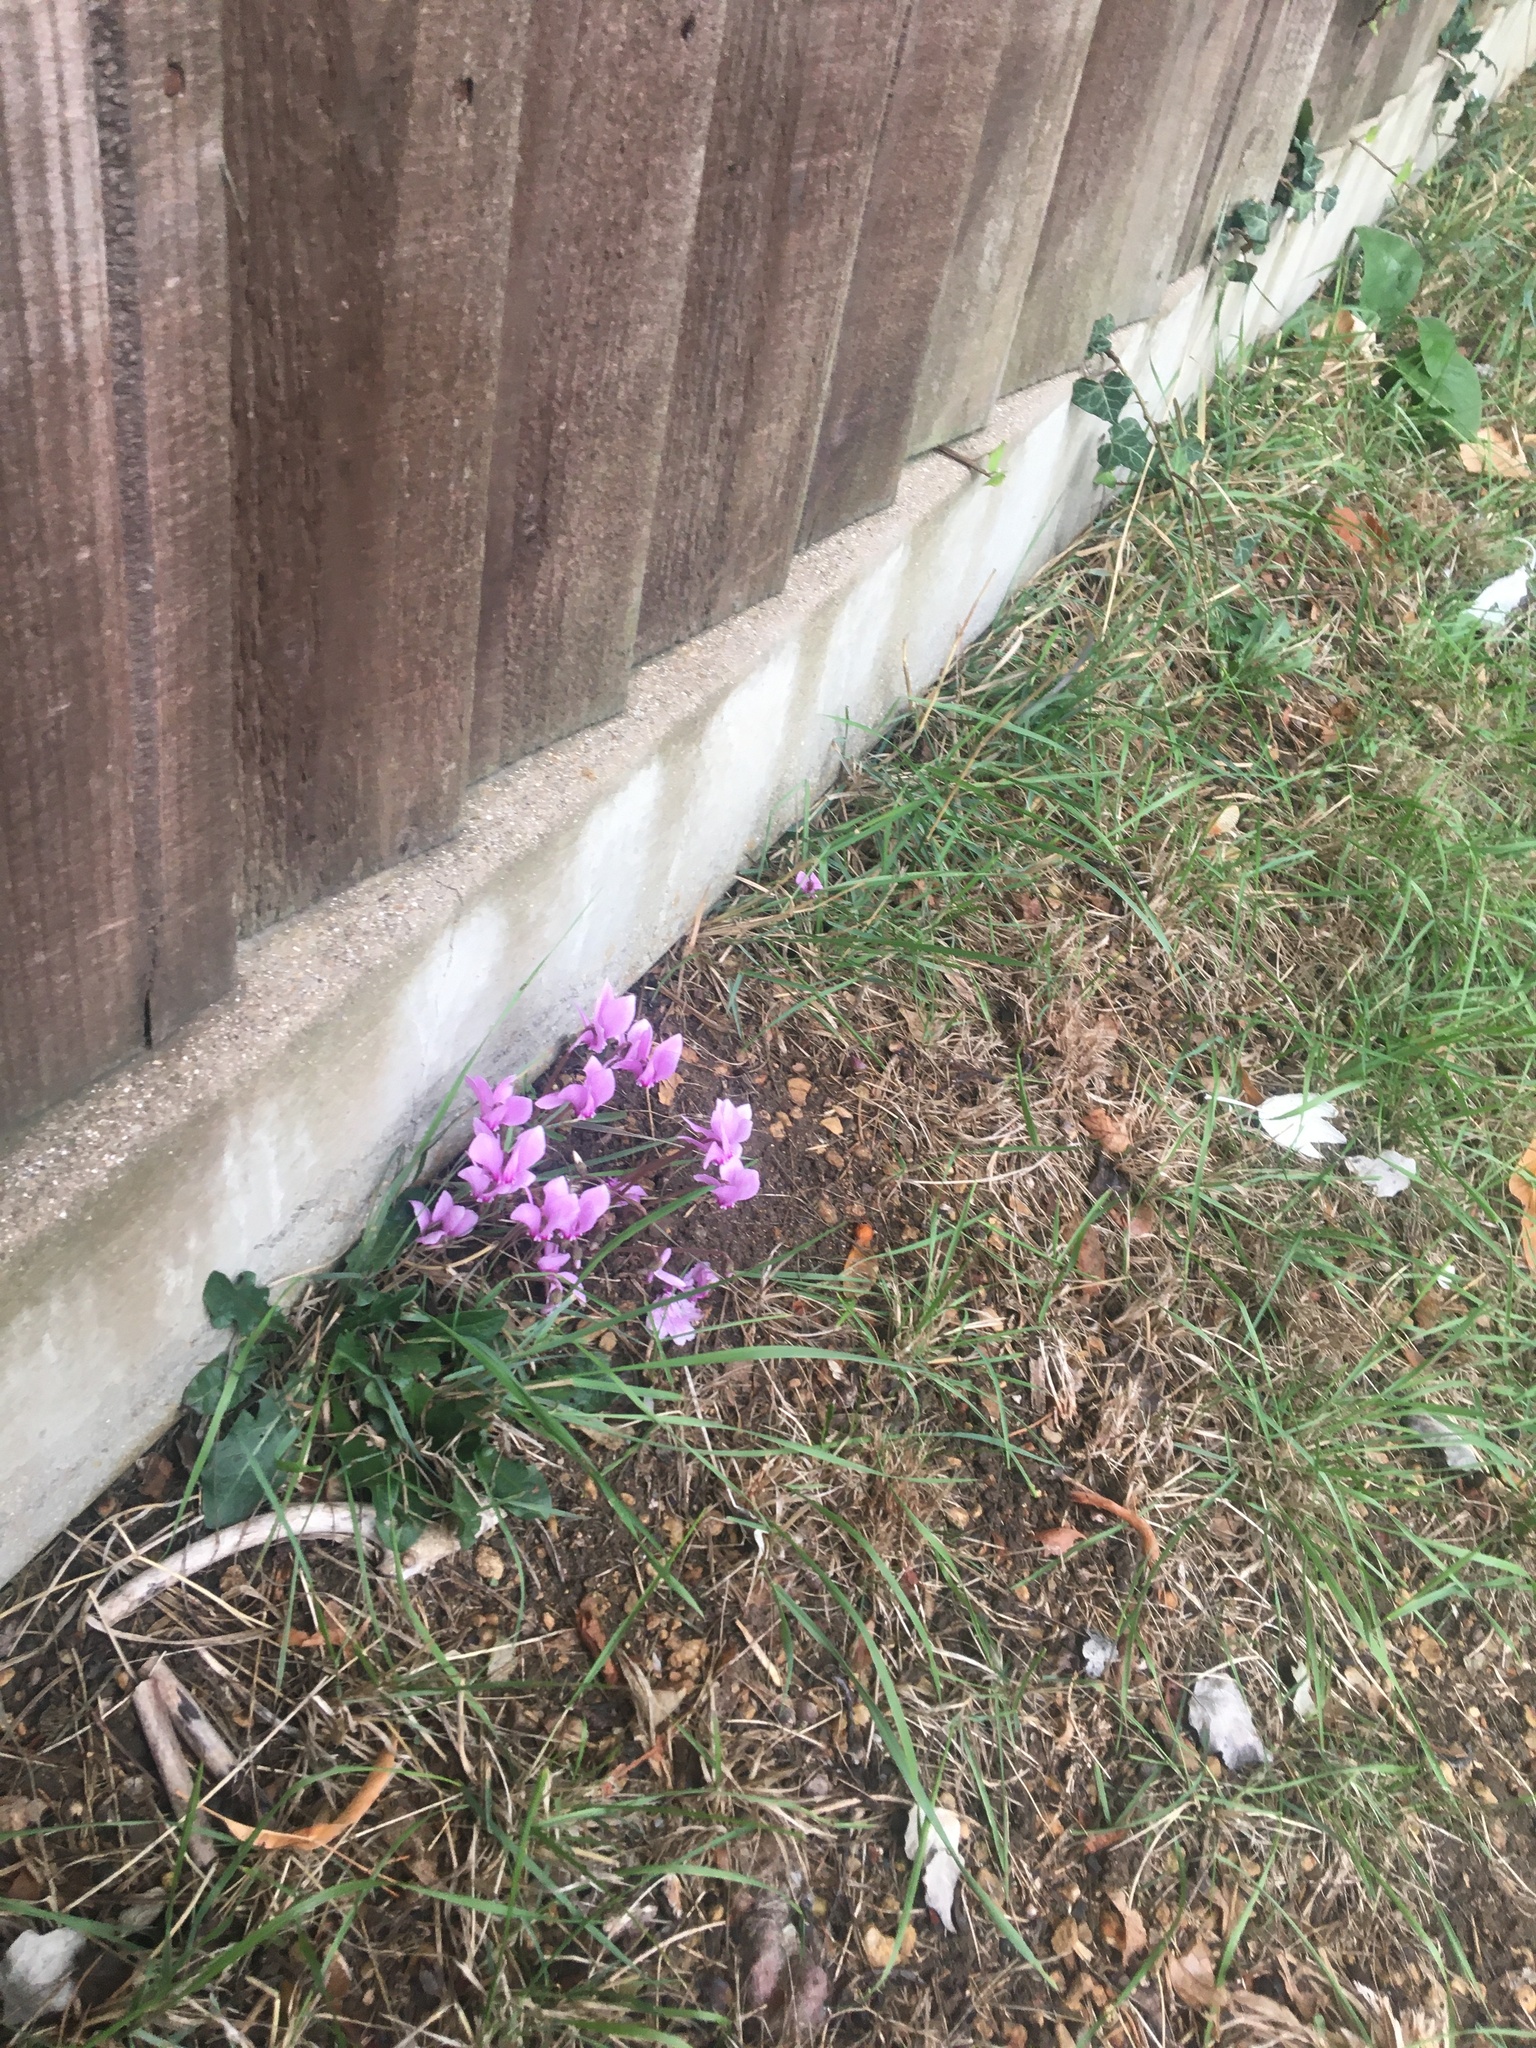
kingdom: Plantae
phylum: Tracheophyta
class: Magnoliopsida
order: Ericales
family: Primulaceae
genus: Cyclamen
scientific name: Cyclamen hederifolium
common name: Sowbread
